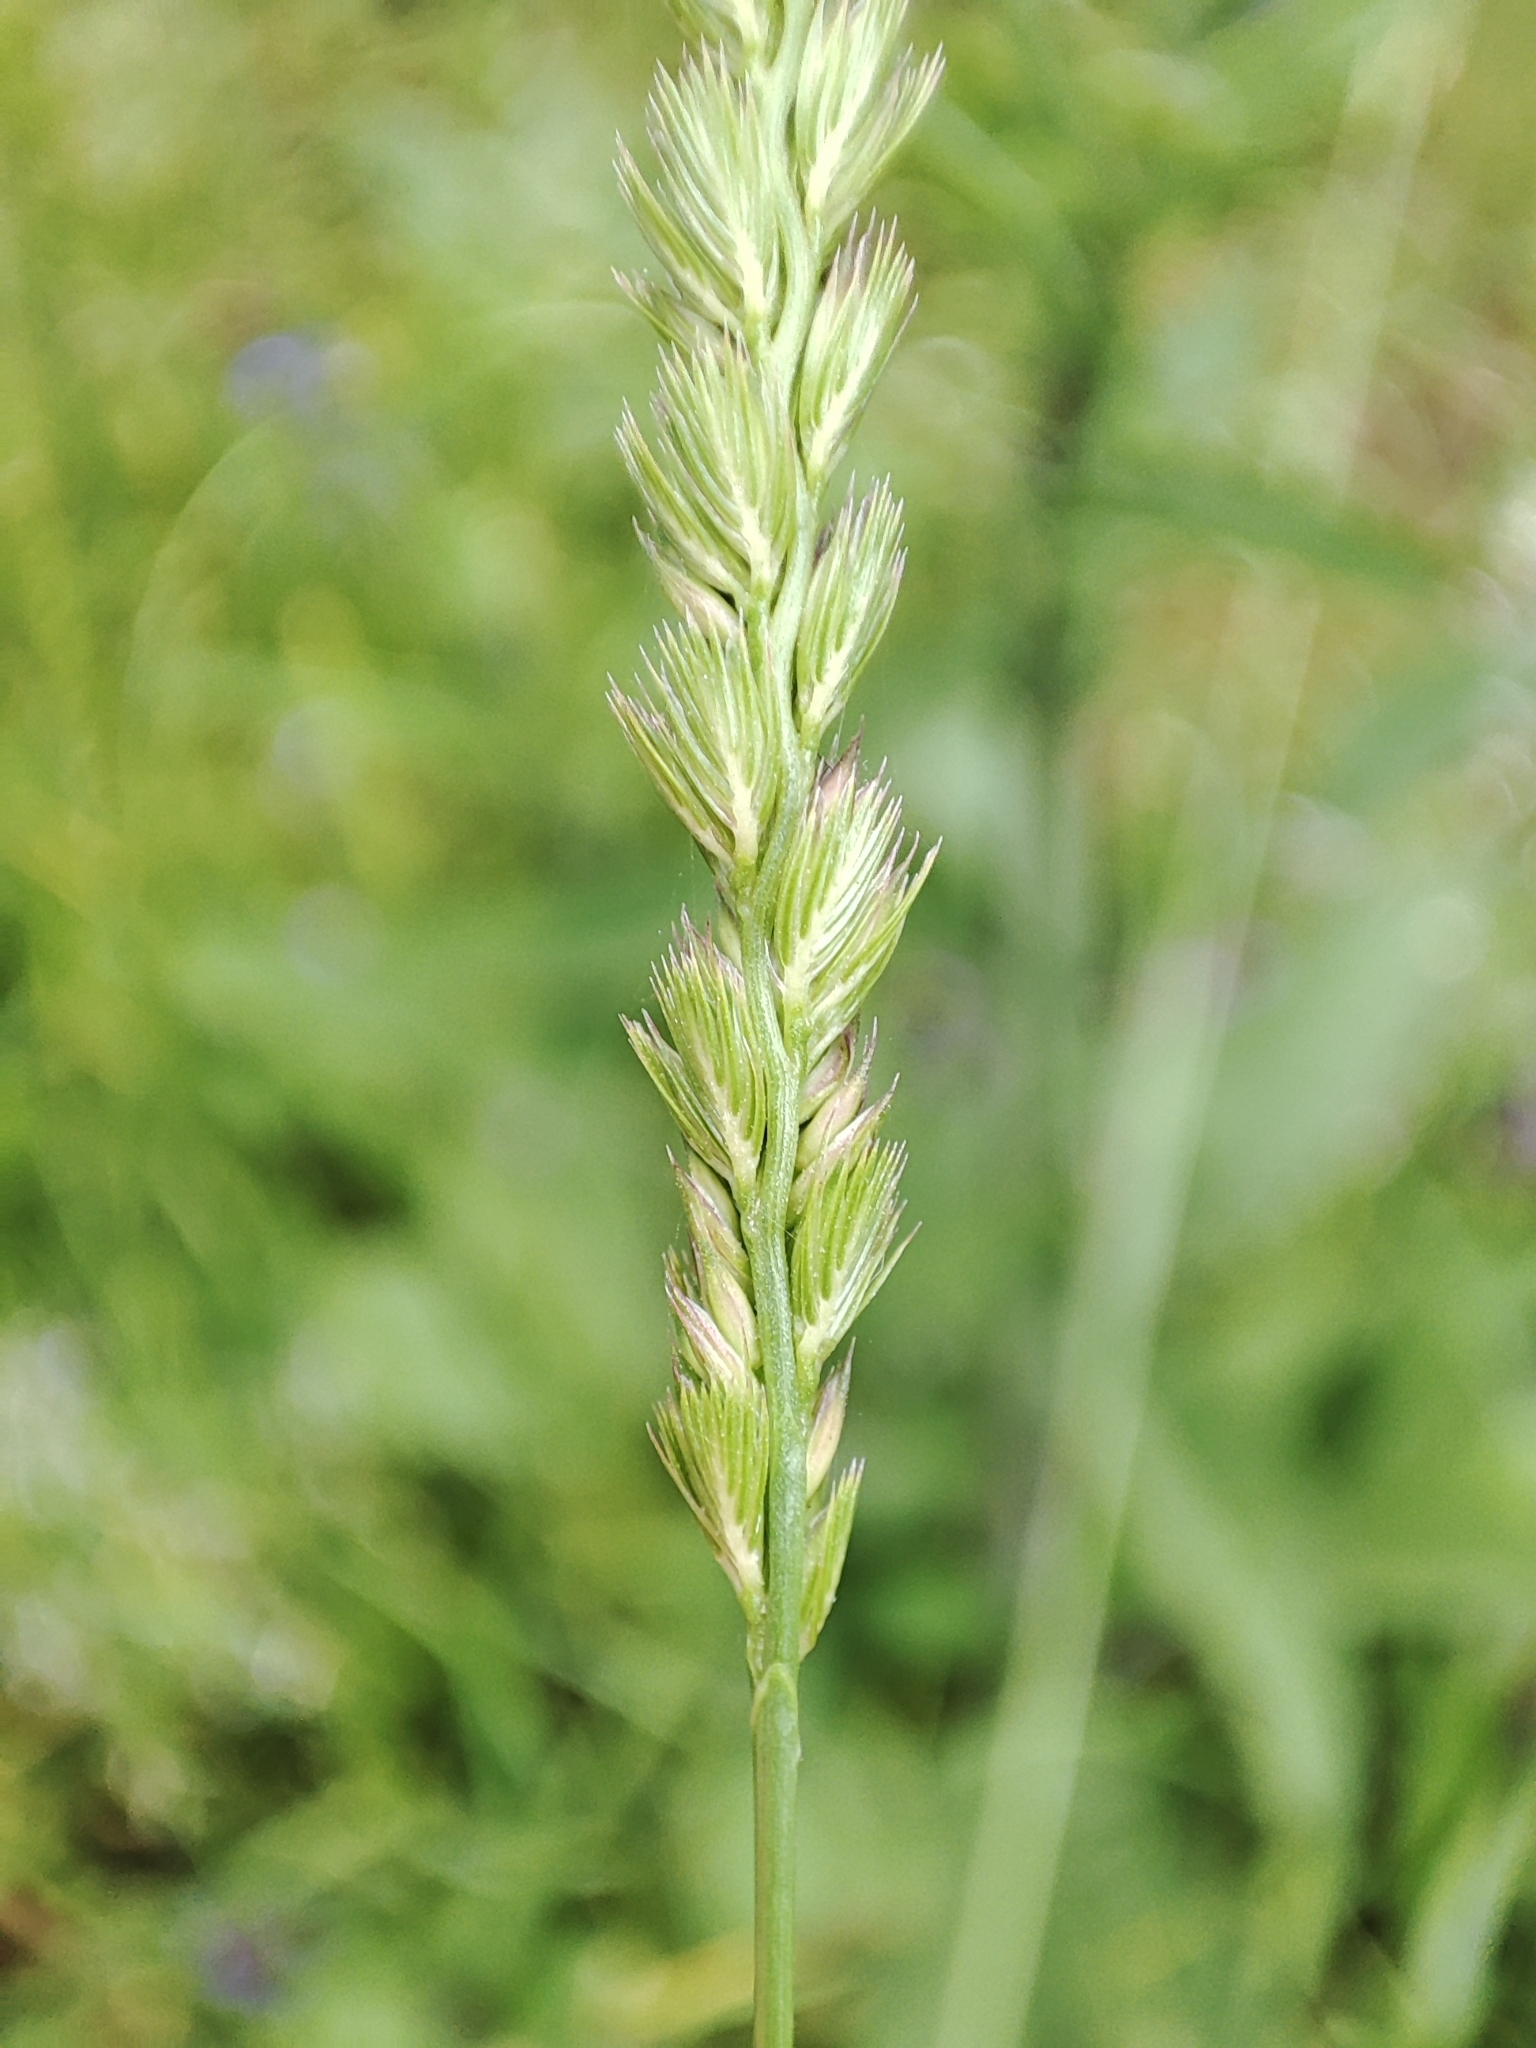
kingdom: Plantae
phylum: Tracheophyta
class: Liliopsida
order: Poales
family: Poaceae
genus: Cynosurus
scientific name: Cynosurus cristatus
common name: Crested dog's-tail
